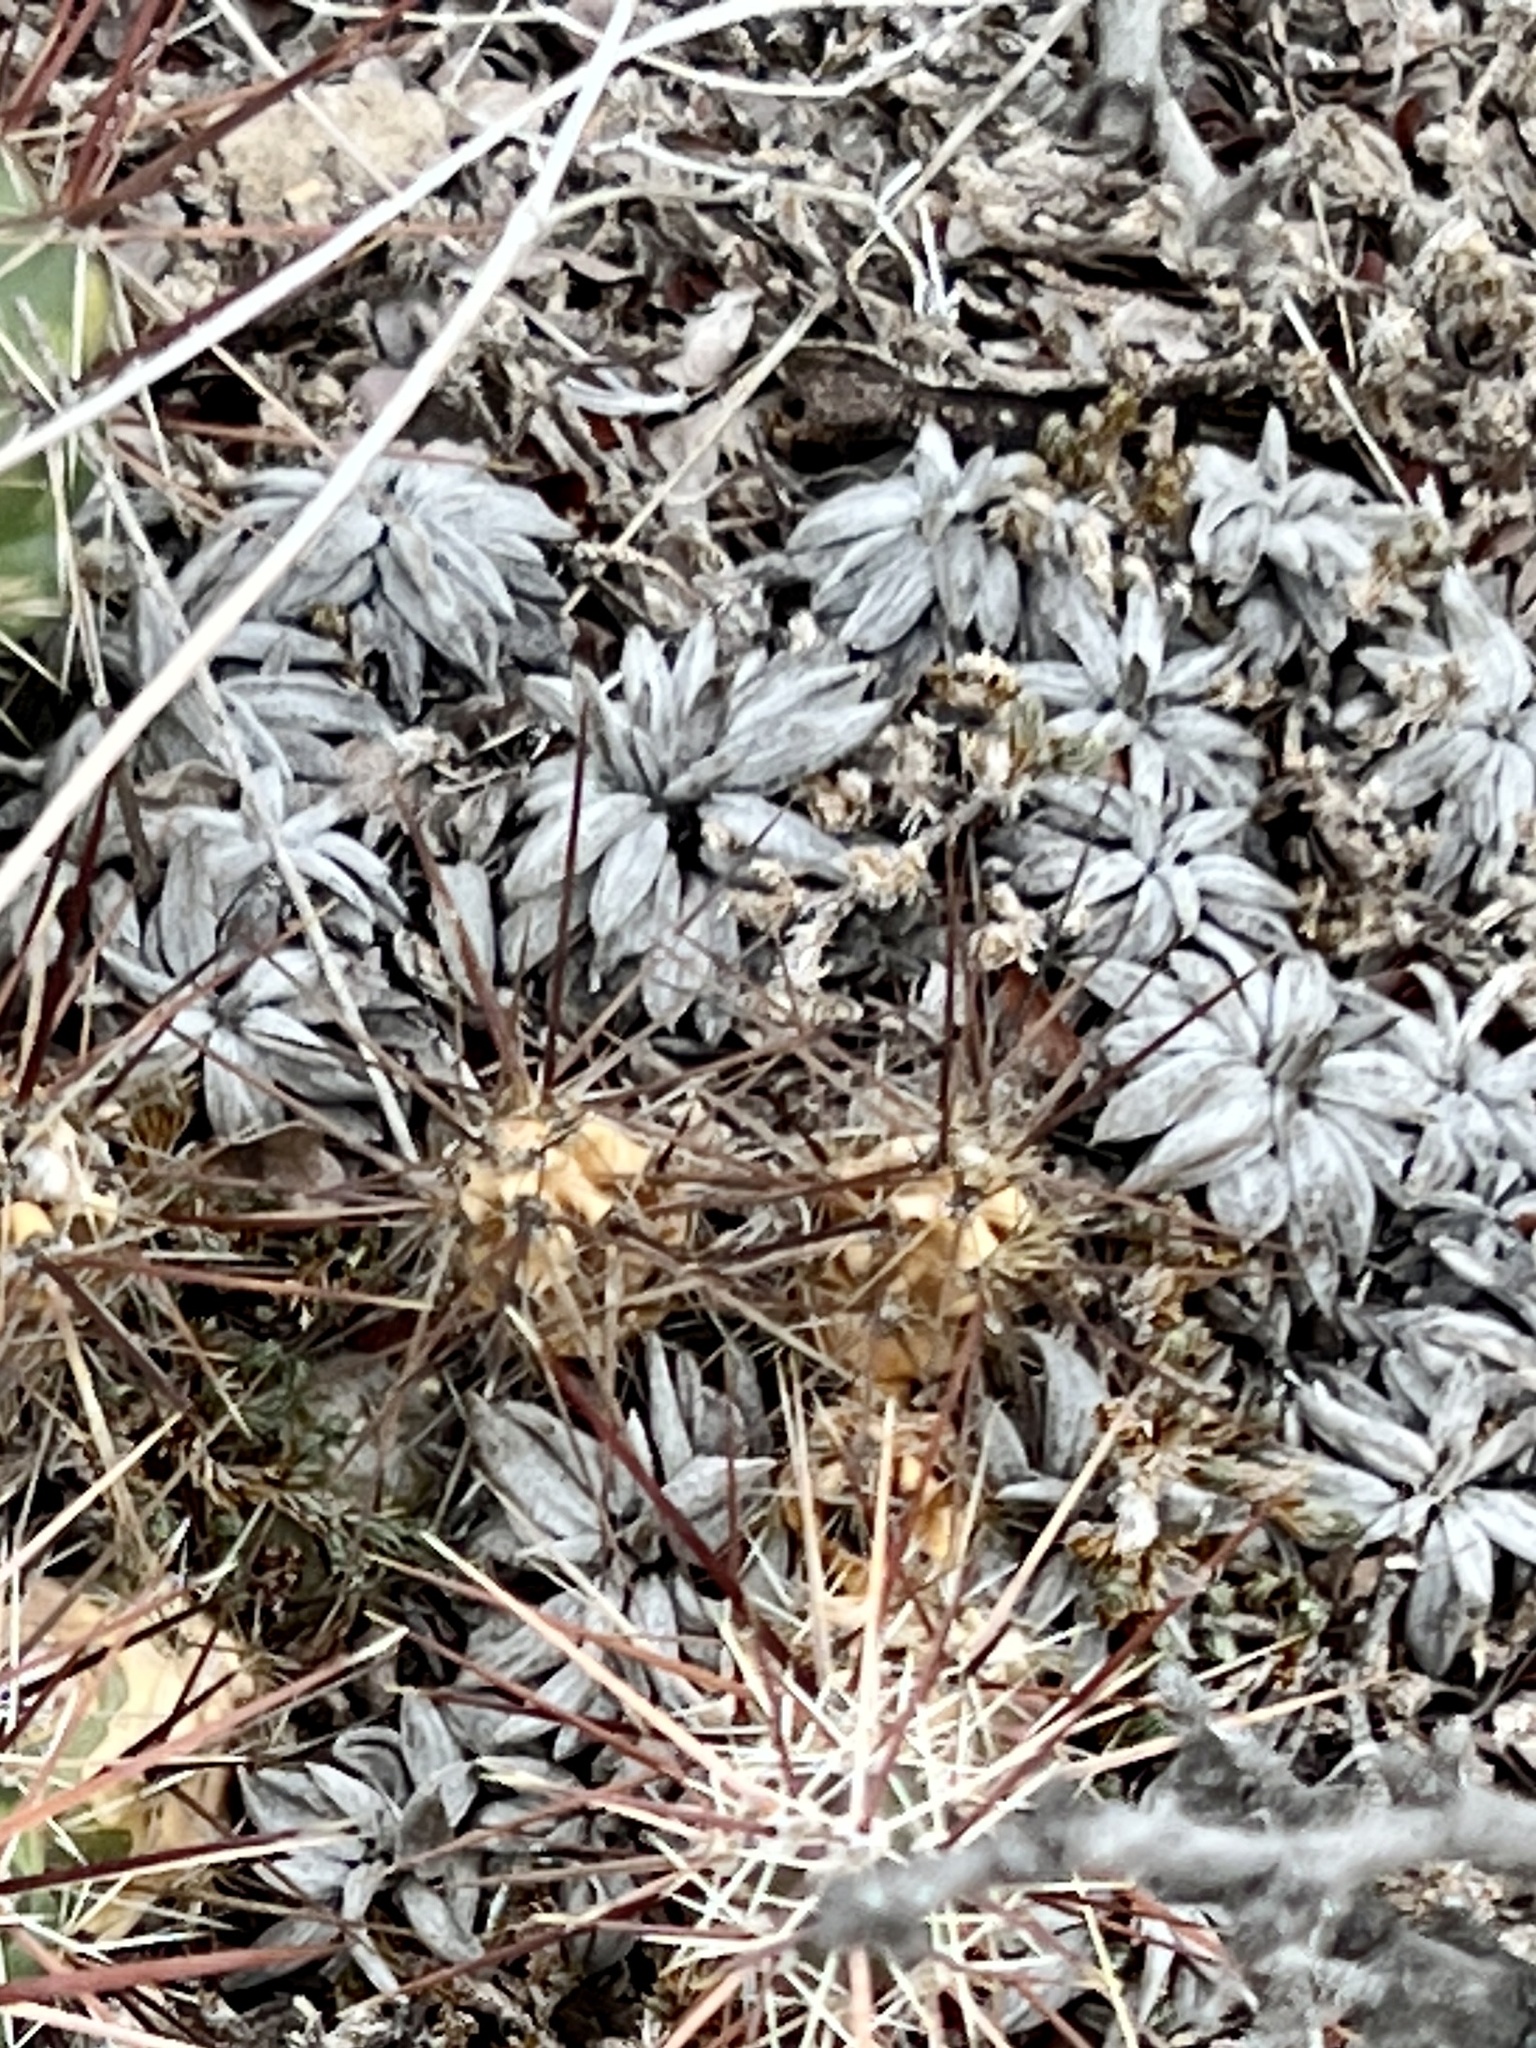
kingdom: Plantae
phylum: Tracheophyta
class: Magnoliopsida
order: Caryophyllales
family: Polygonaceae
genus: Eriogonum
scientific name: Eriogonum havardii
